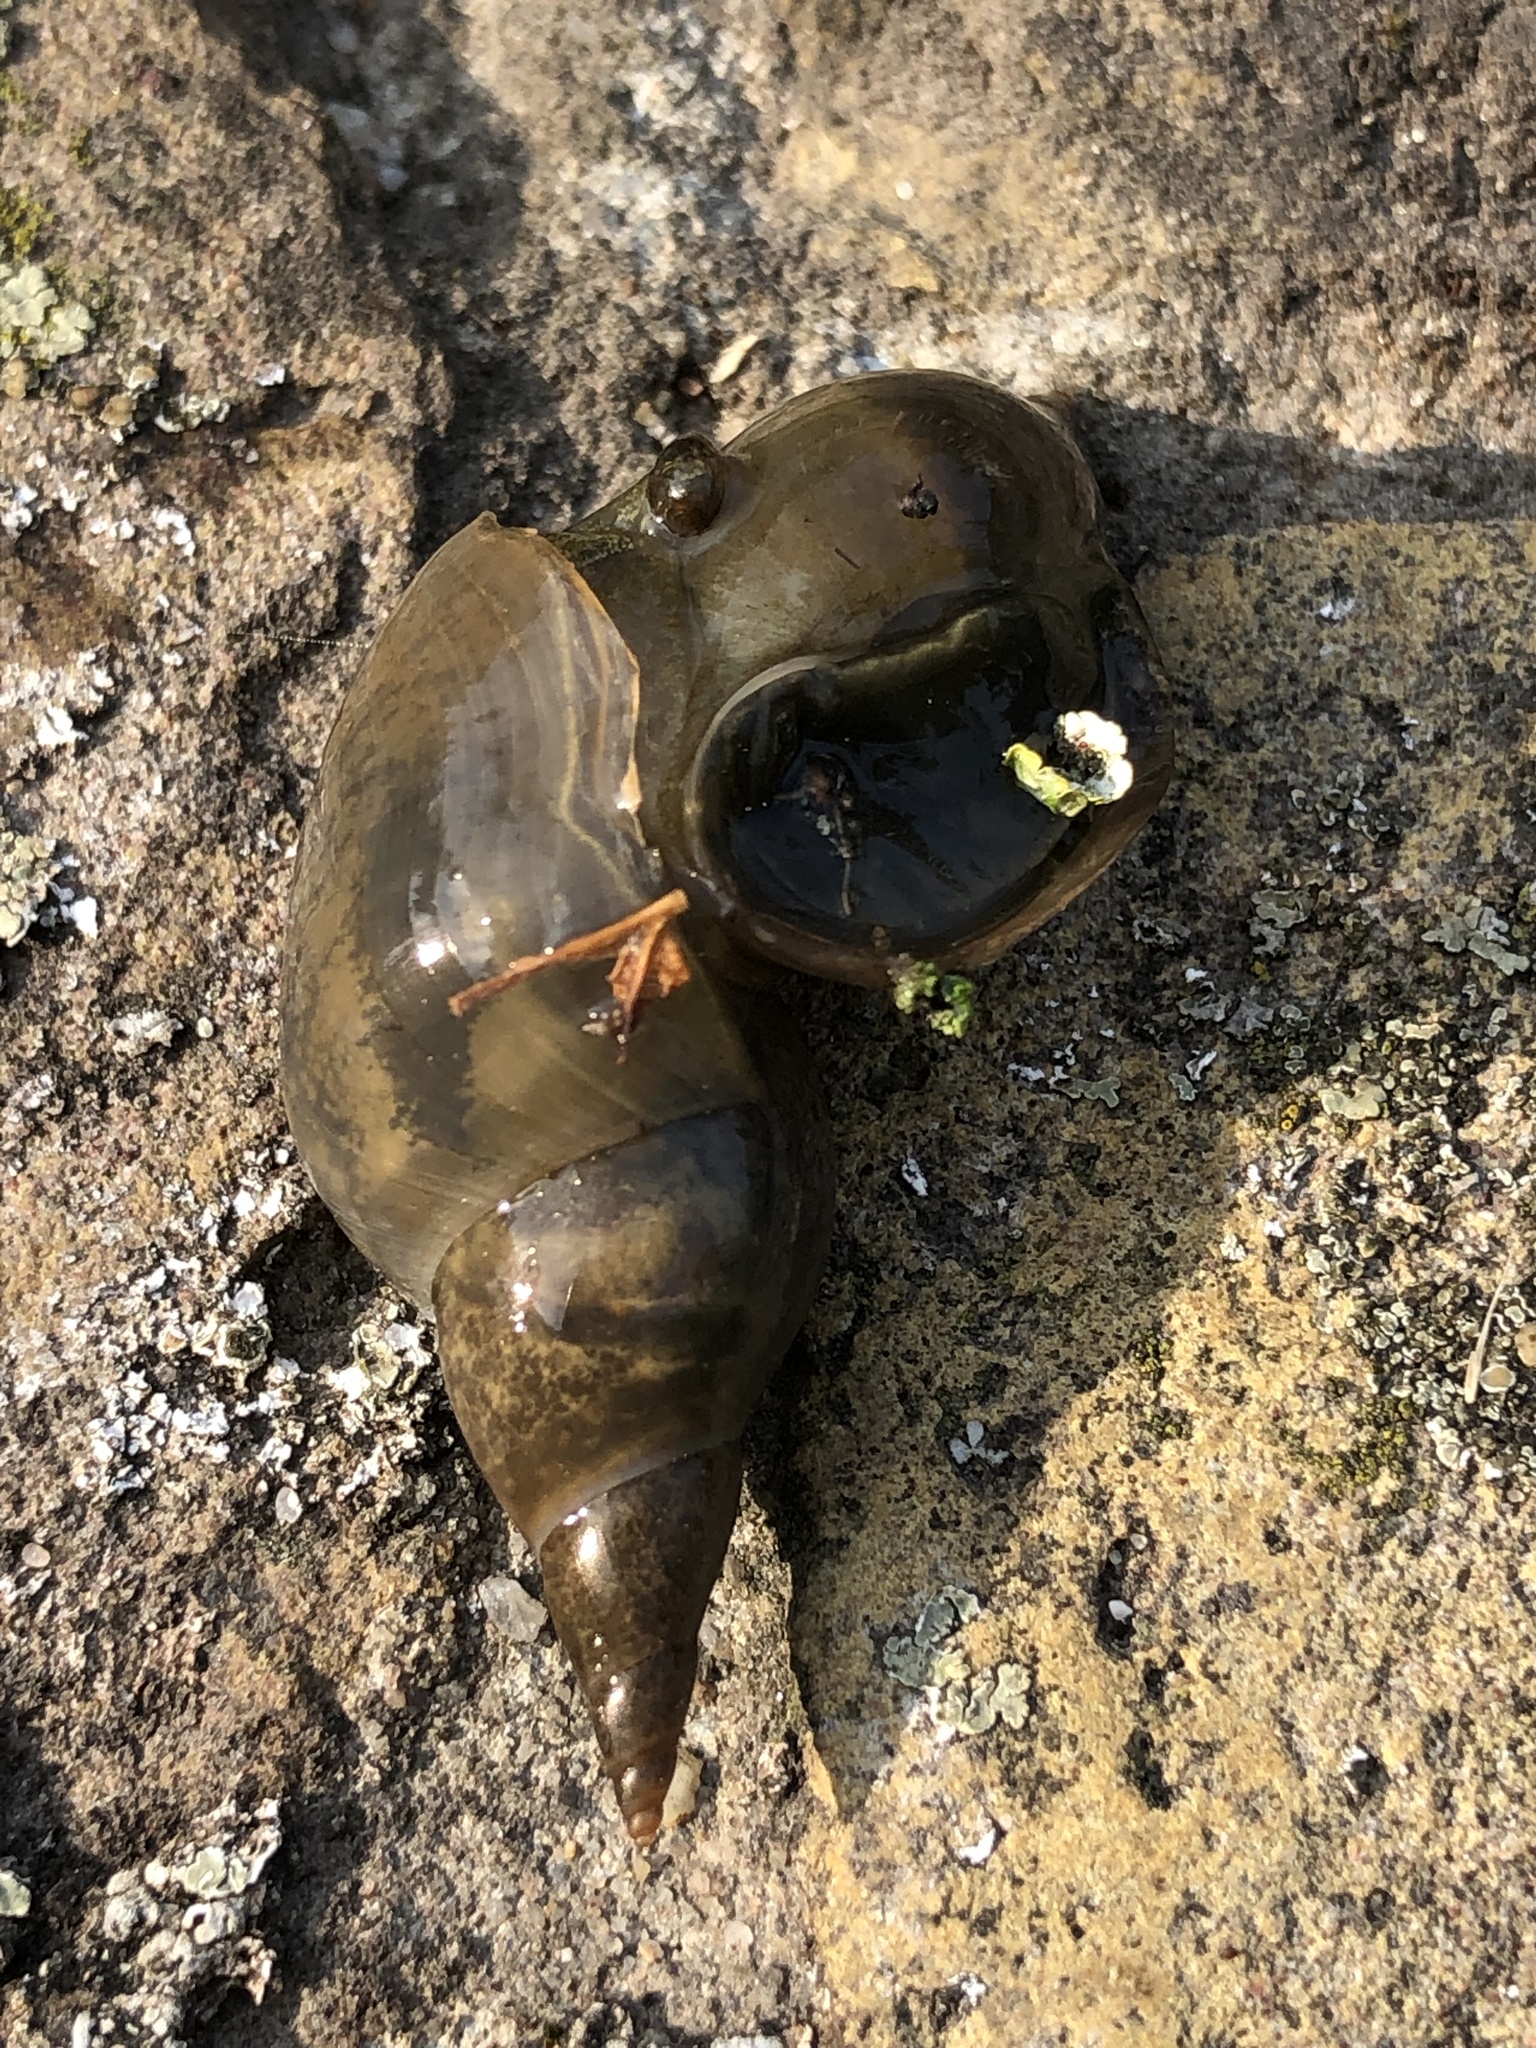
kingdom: Animalia
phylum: Mollusca
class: Gastropoda
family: Lymnaeidae
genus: Lymnaea
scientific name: Lymnaea stagnalis
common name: Great pond snail
